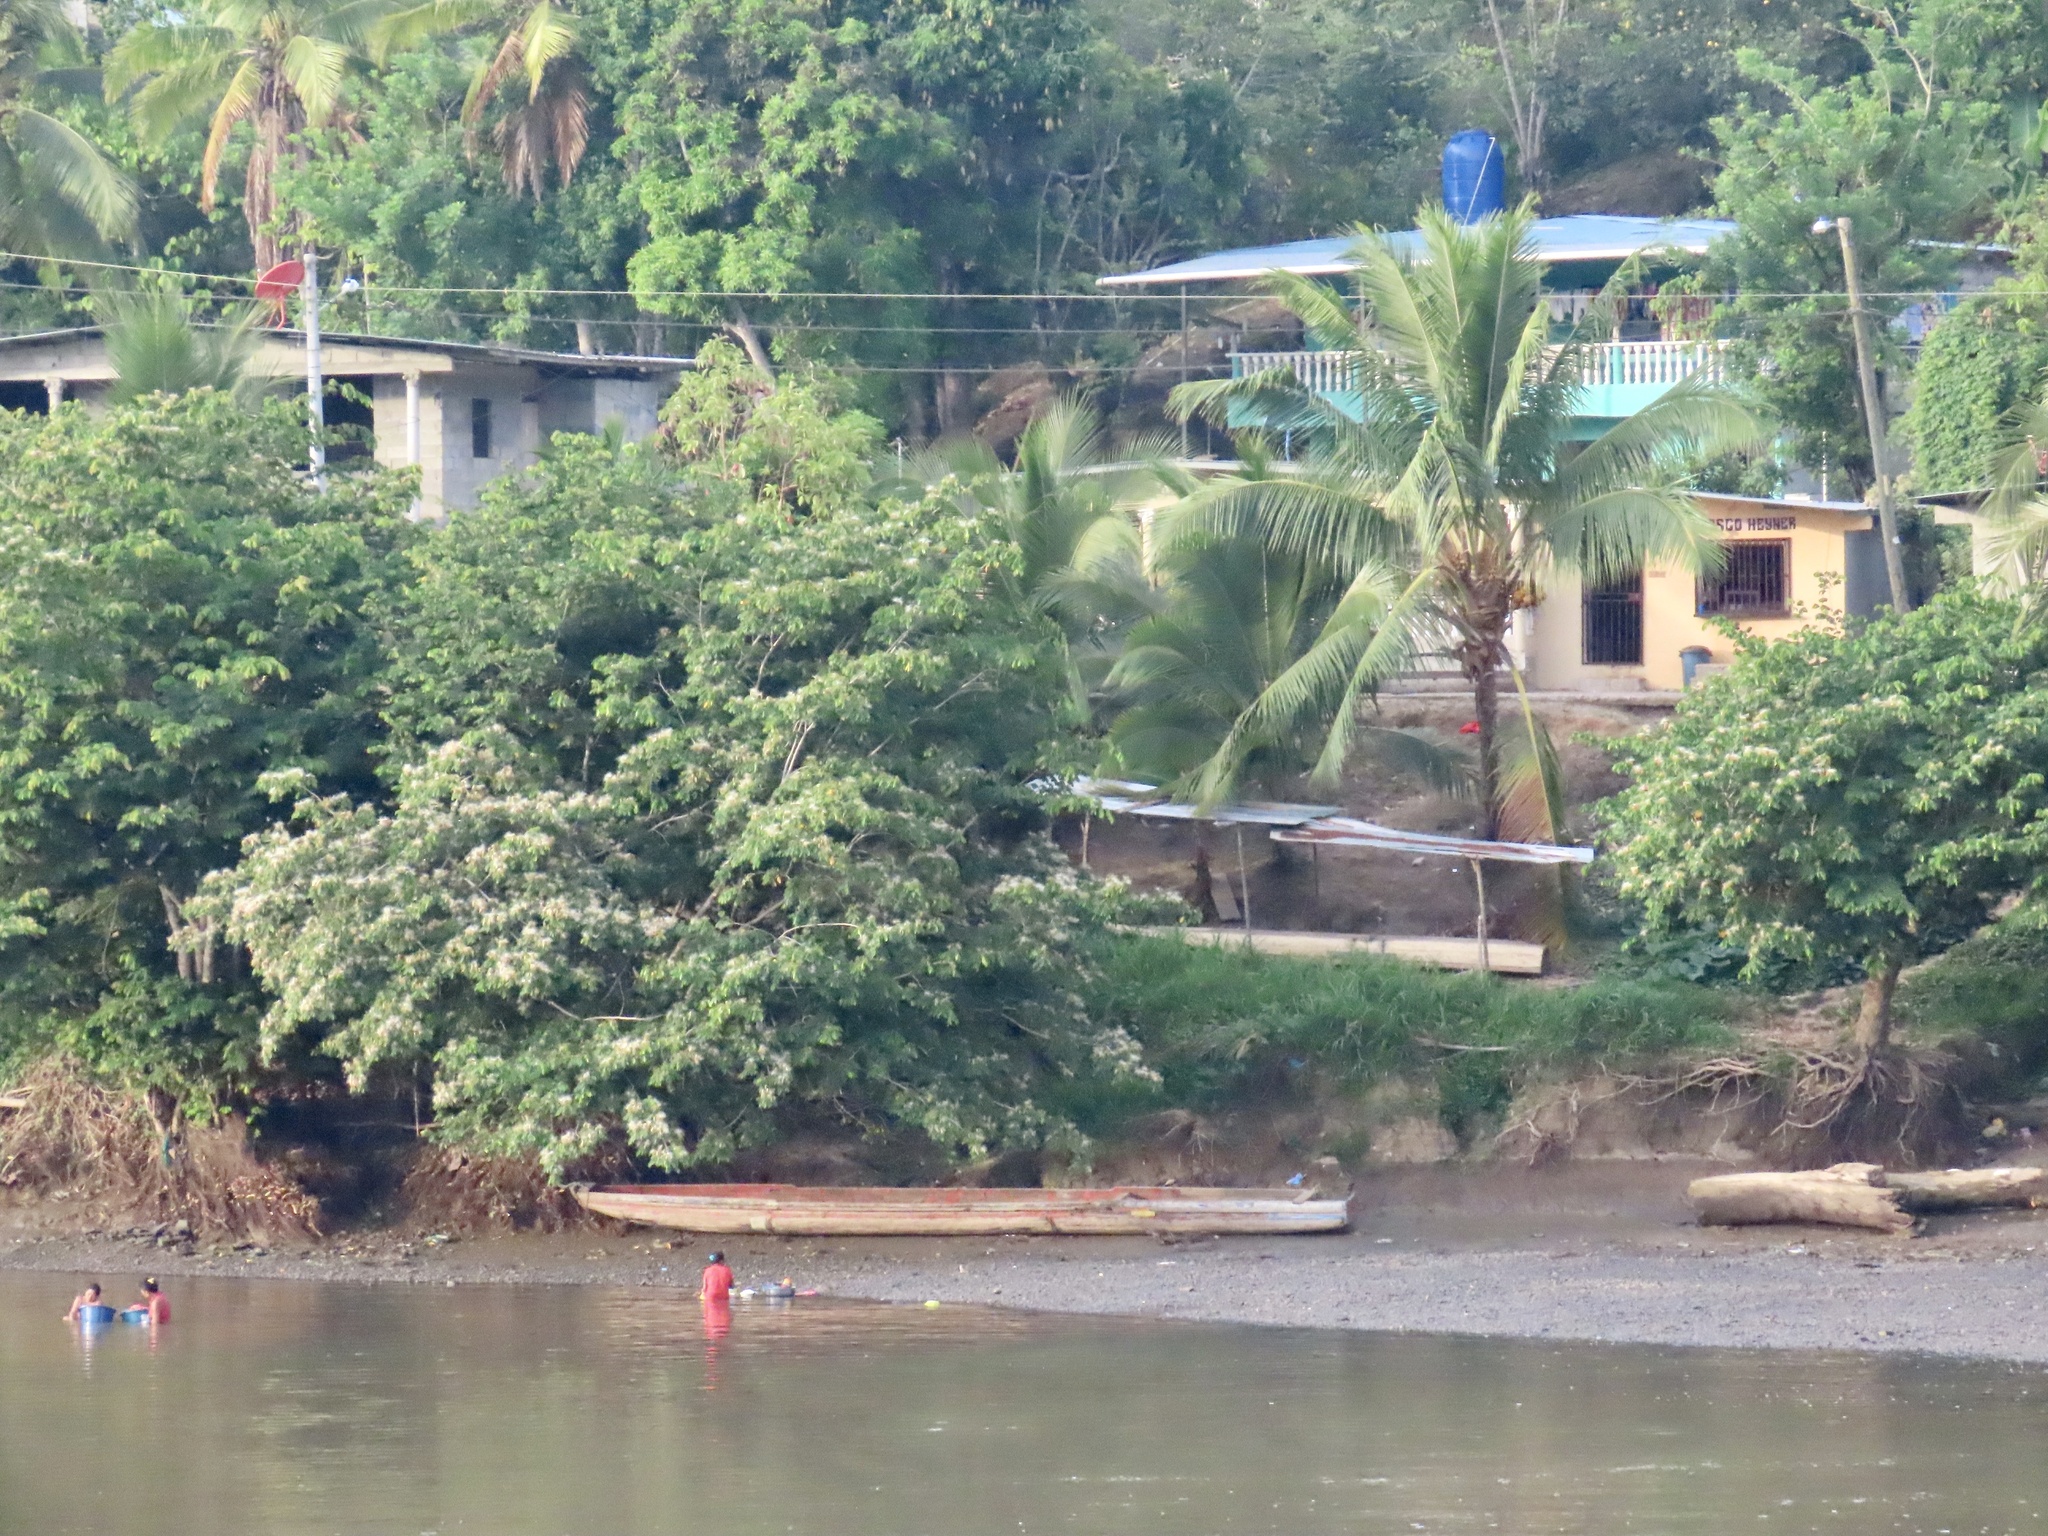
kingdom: Animalia
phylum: Chordata
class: Aves
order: Coraciiformes
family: Alcedinidae
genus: Megaceryle
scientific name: Megaceryle torquata
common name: Ringed kingfisher
